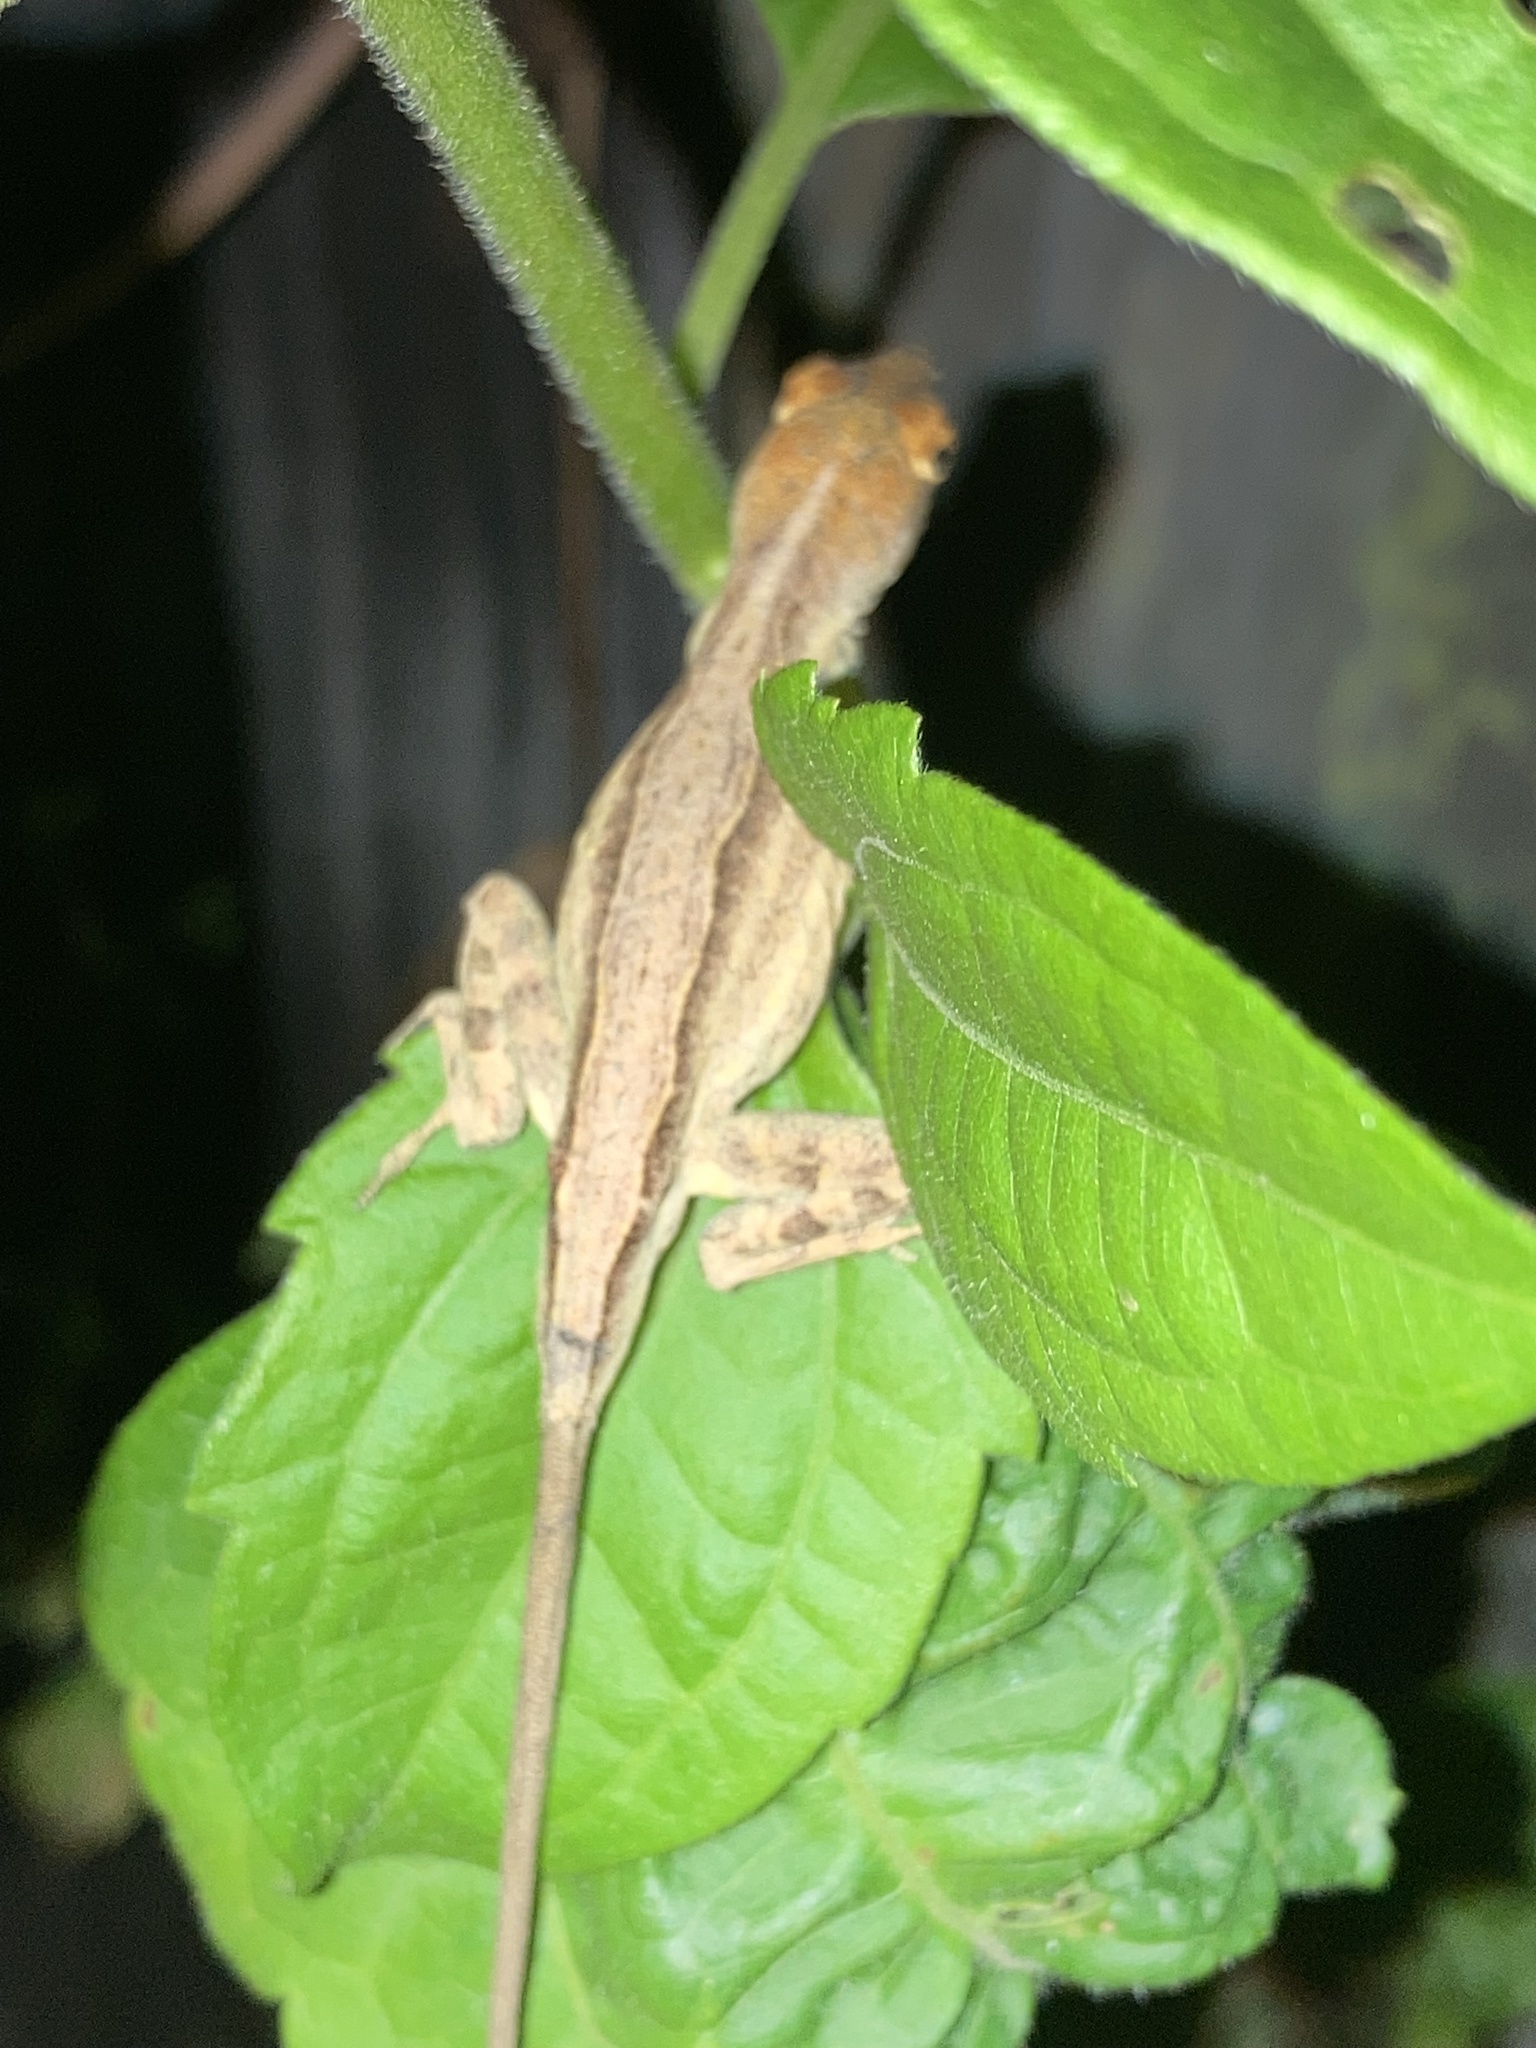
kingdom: Animalia
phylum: Chordata
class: Squamata
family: Dactyloidae
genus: Anolis
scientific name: Anolis sagrei
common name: Brown anole
